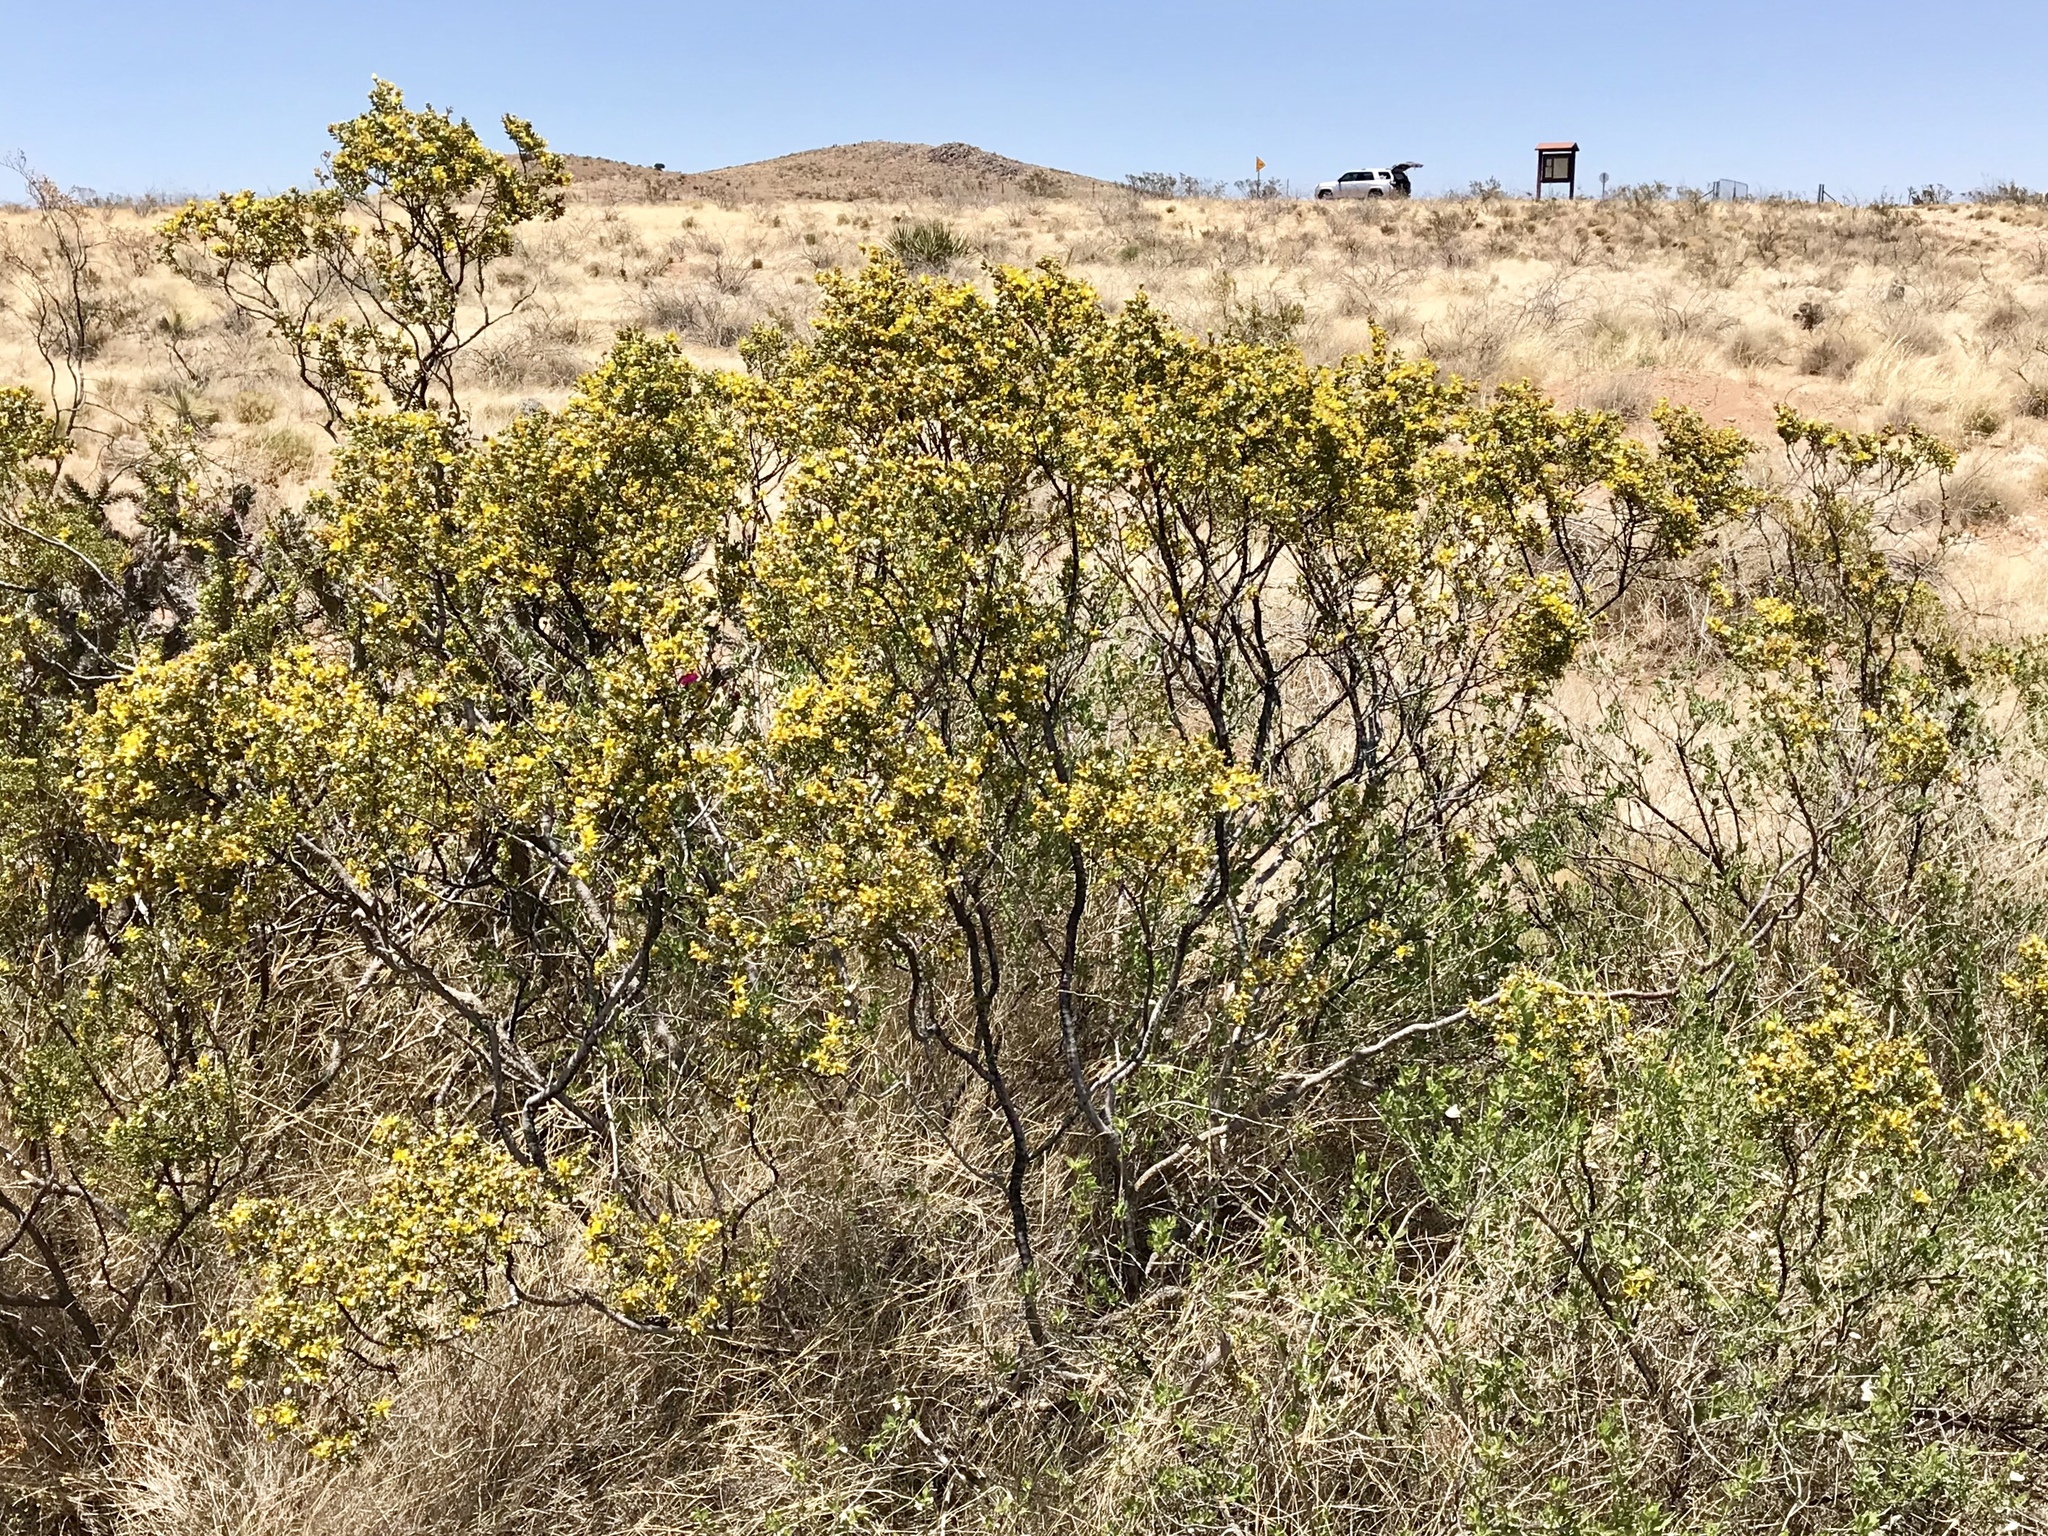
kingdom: Plantae
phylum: Tracheophyta
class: Magnoliopsida
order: Zygophyllales
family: Zygophyllaceae
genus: Larrea
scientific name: Larrea tridentata
